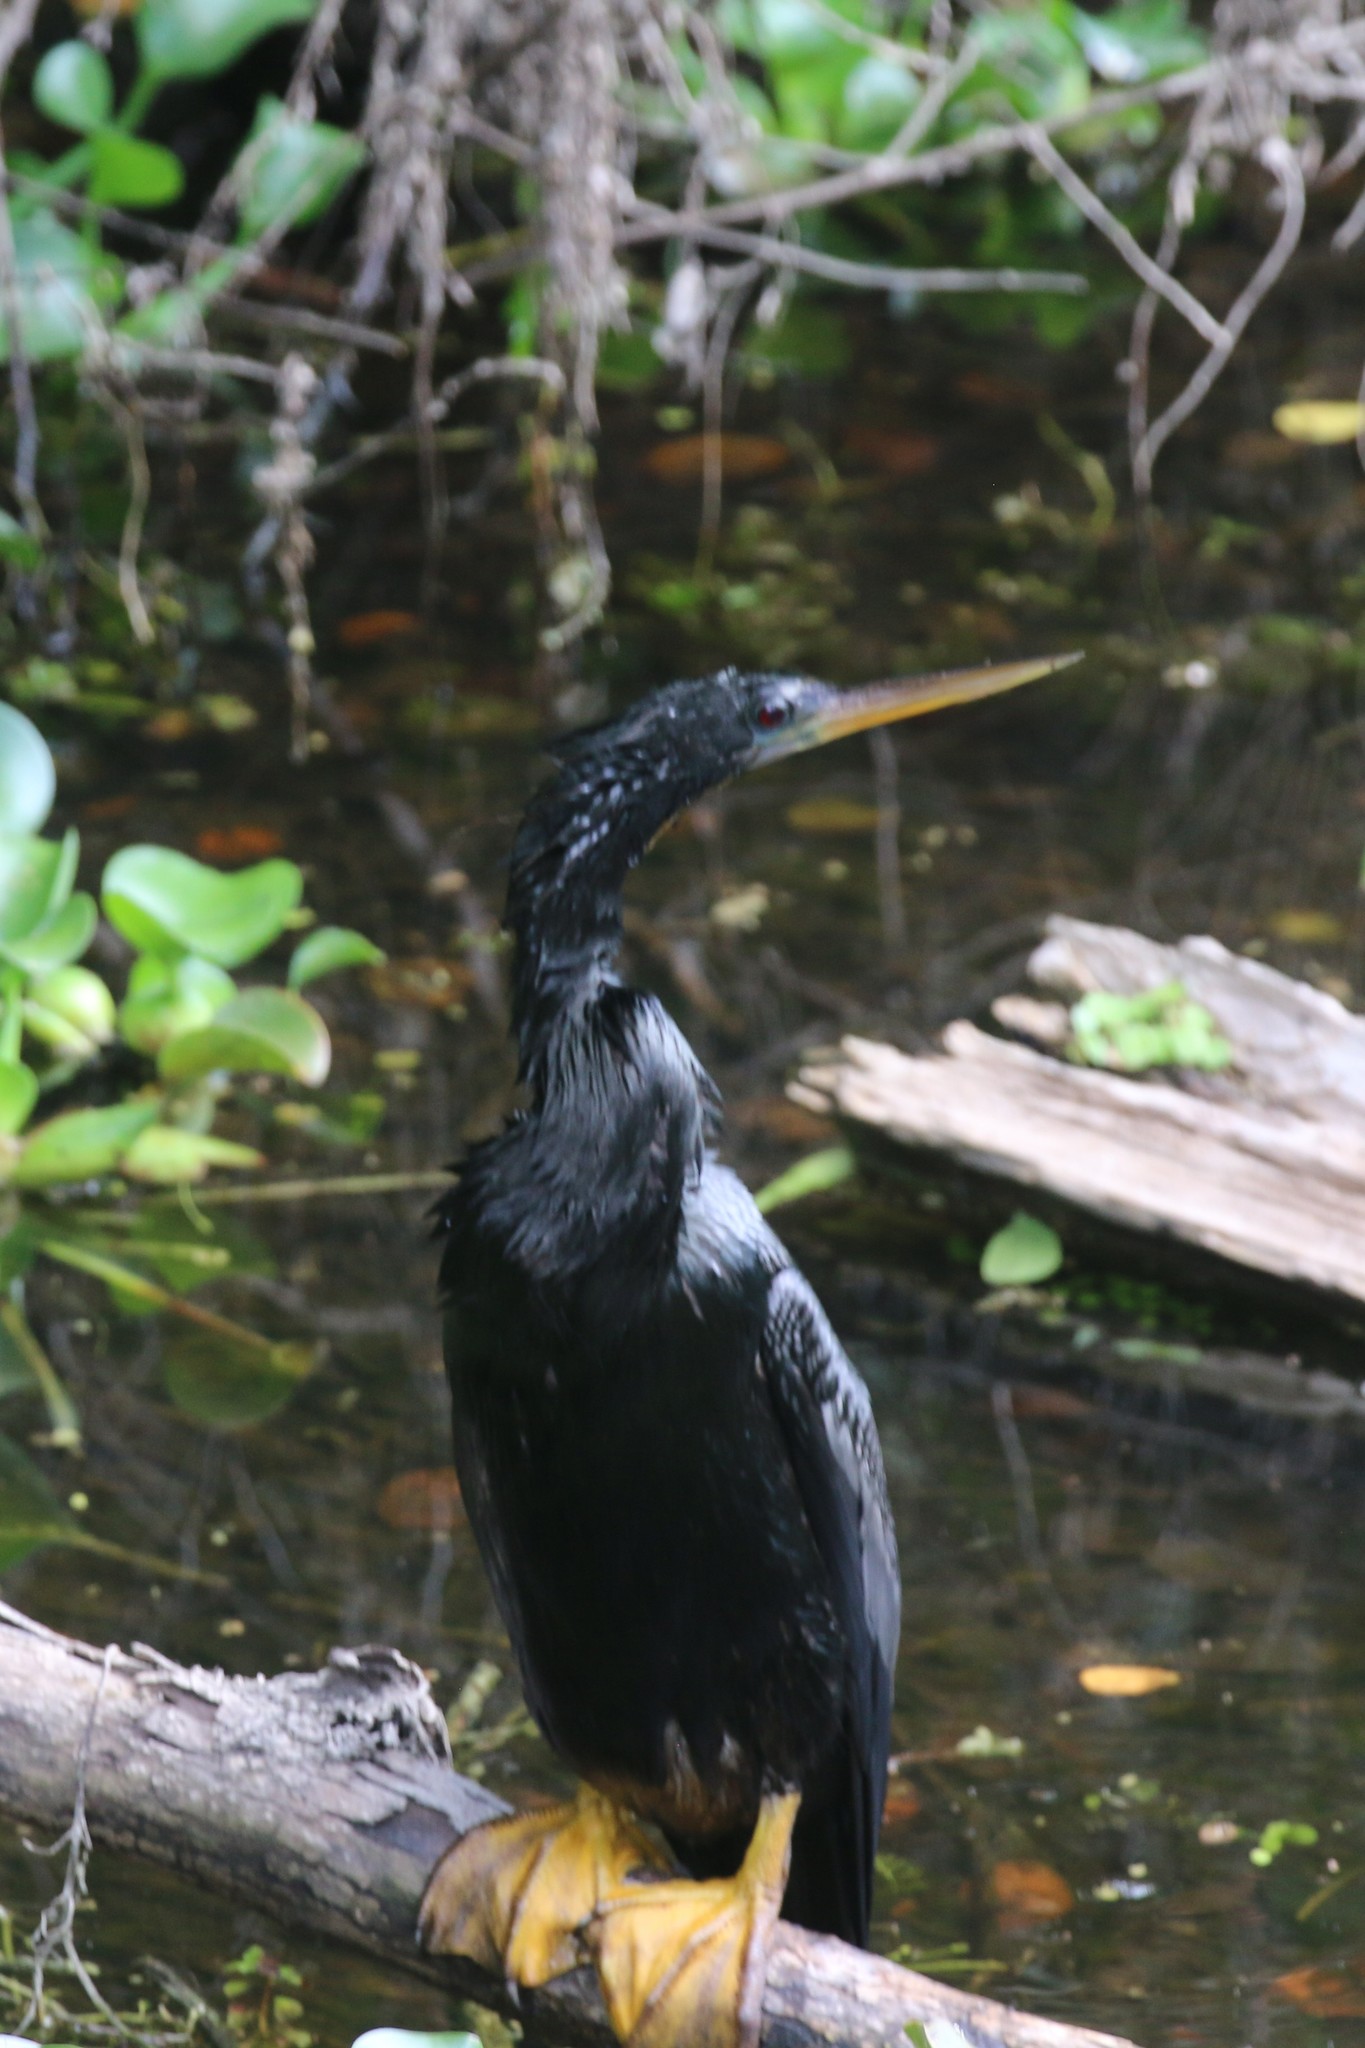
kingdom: Animalia
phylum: Chordata
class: Aves
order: Suliformes
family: Anhingidae
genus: Anhinga
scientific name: Anhinga anhinga
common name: Anhinga
